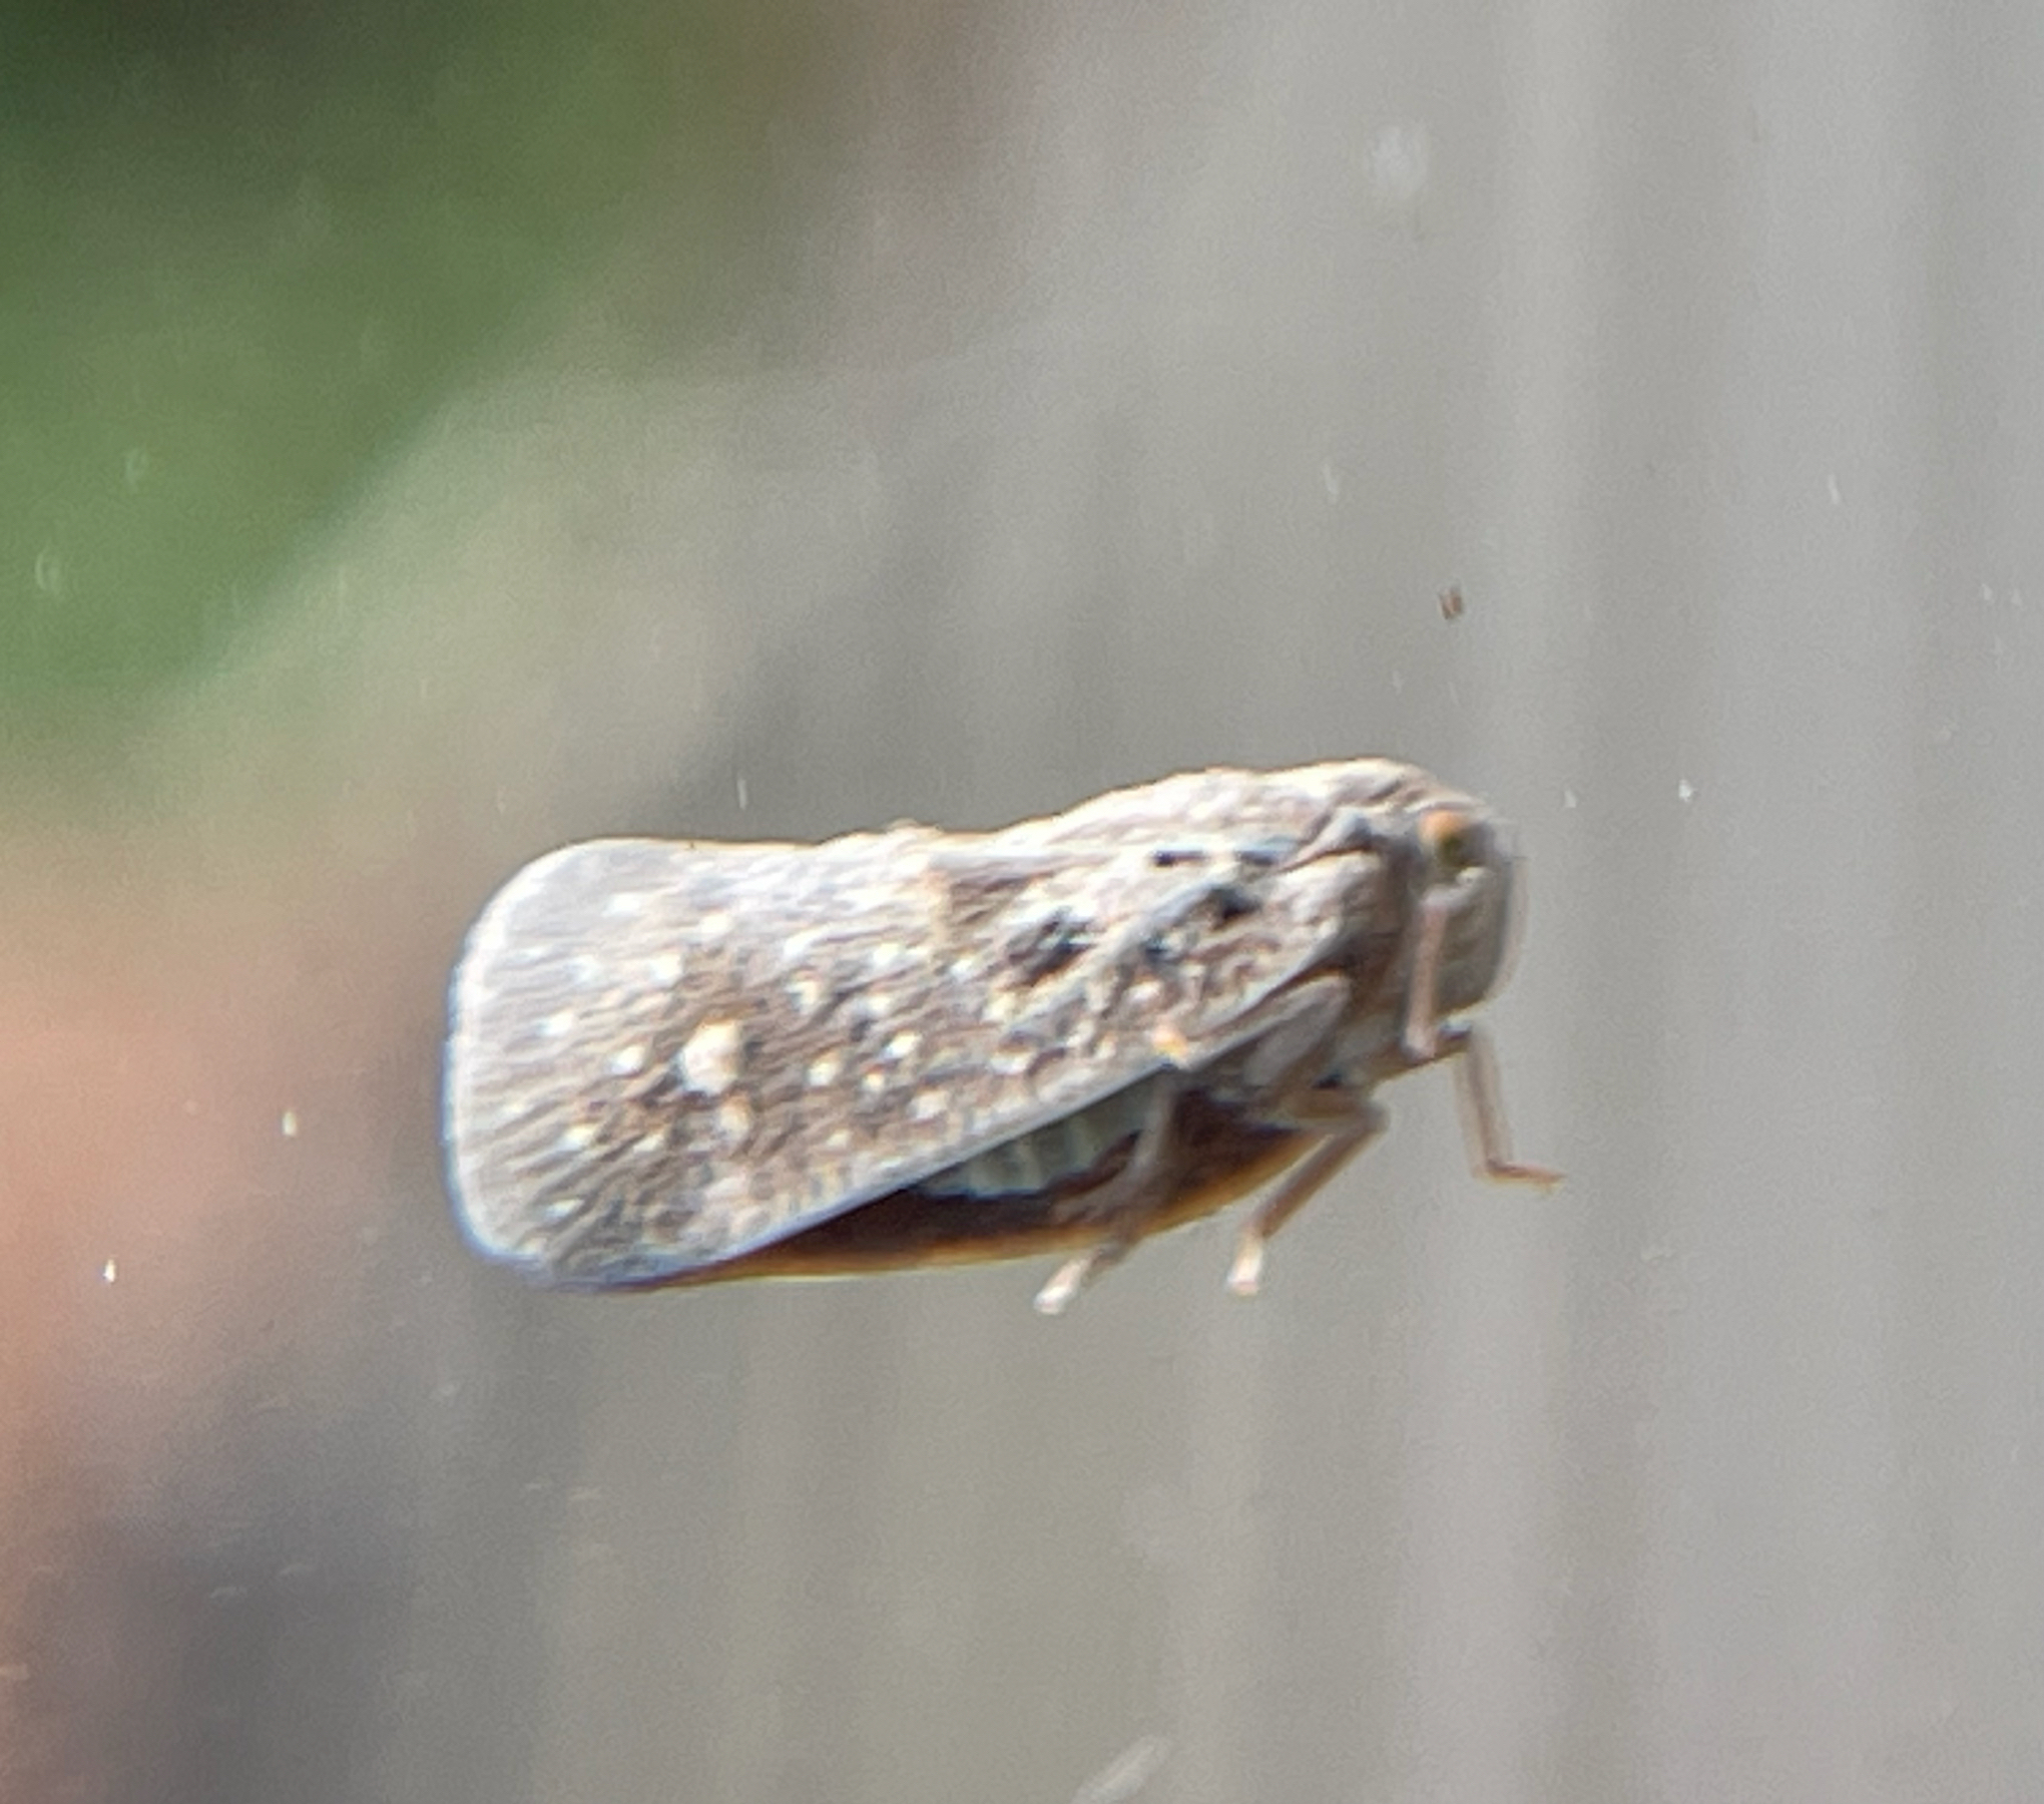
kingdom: Animalia
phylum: Arthropoda
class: Insecta
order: Hemiptera
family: Flatidae
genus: Metcalfa
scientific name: Metcalfa pruinosa
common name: Citrus flatid planthopper
